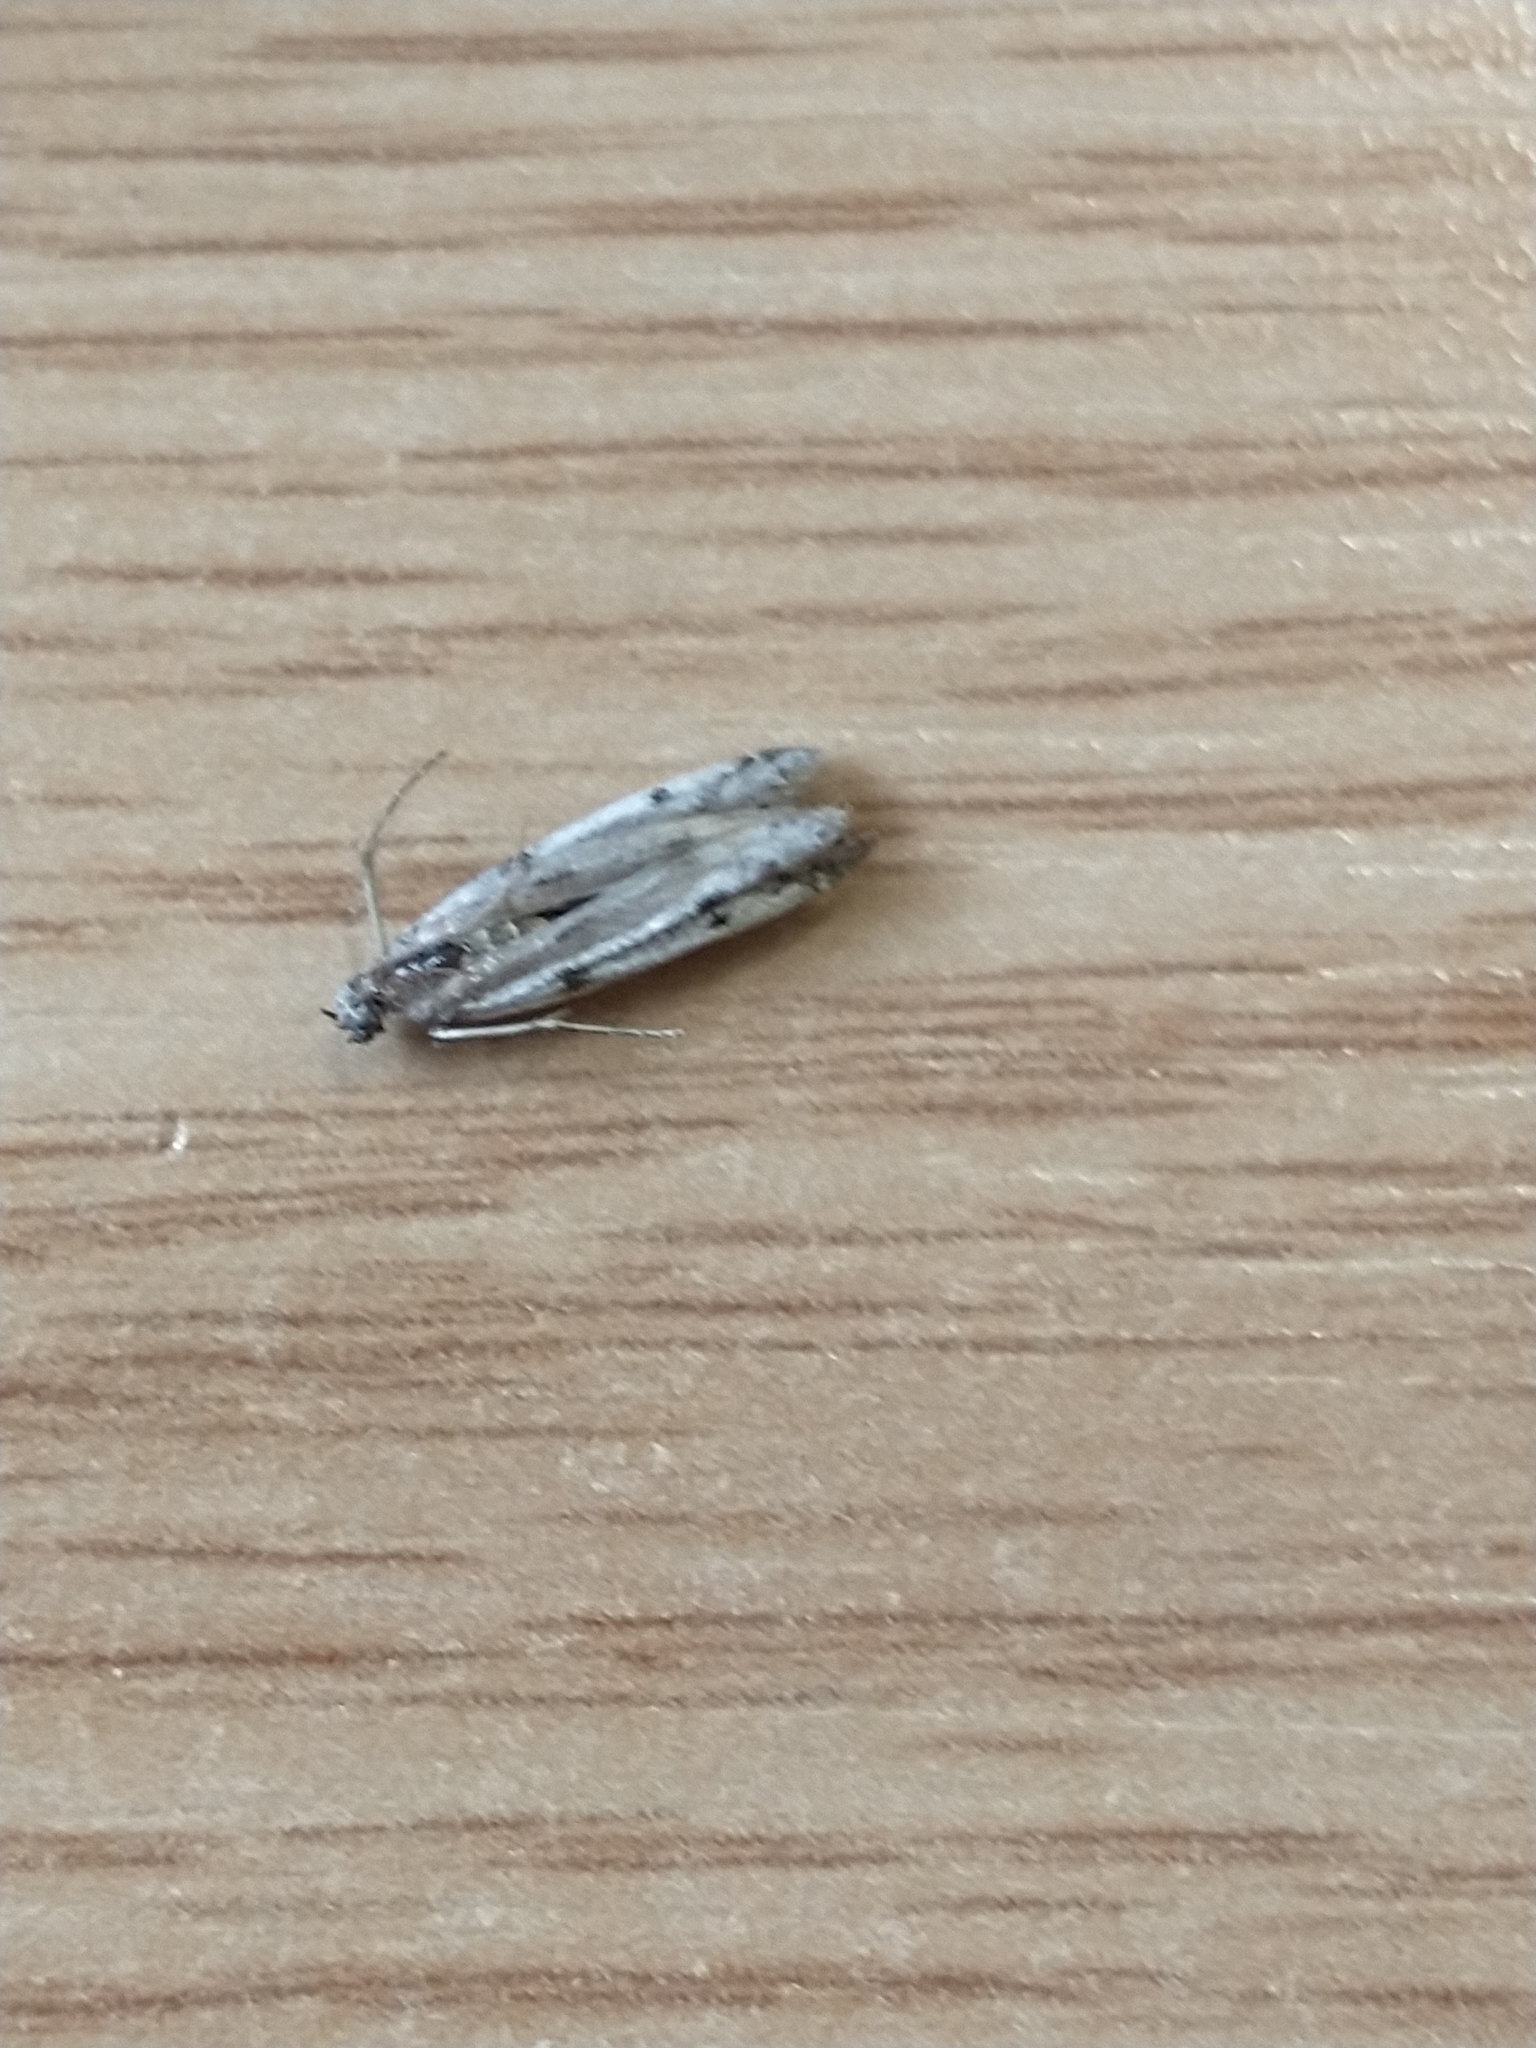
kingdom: Animalia
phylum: Arthropoda
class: Insecta
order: Lepidoptera
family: Pyralidae
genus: Phycitodes
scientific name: Phycitodes binaevella
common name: Ermine knot-horn
